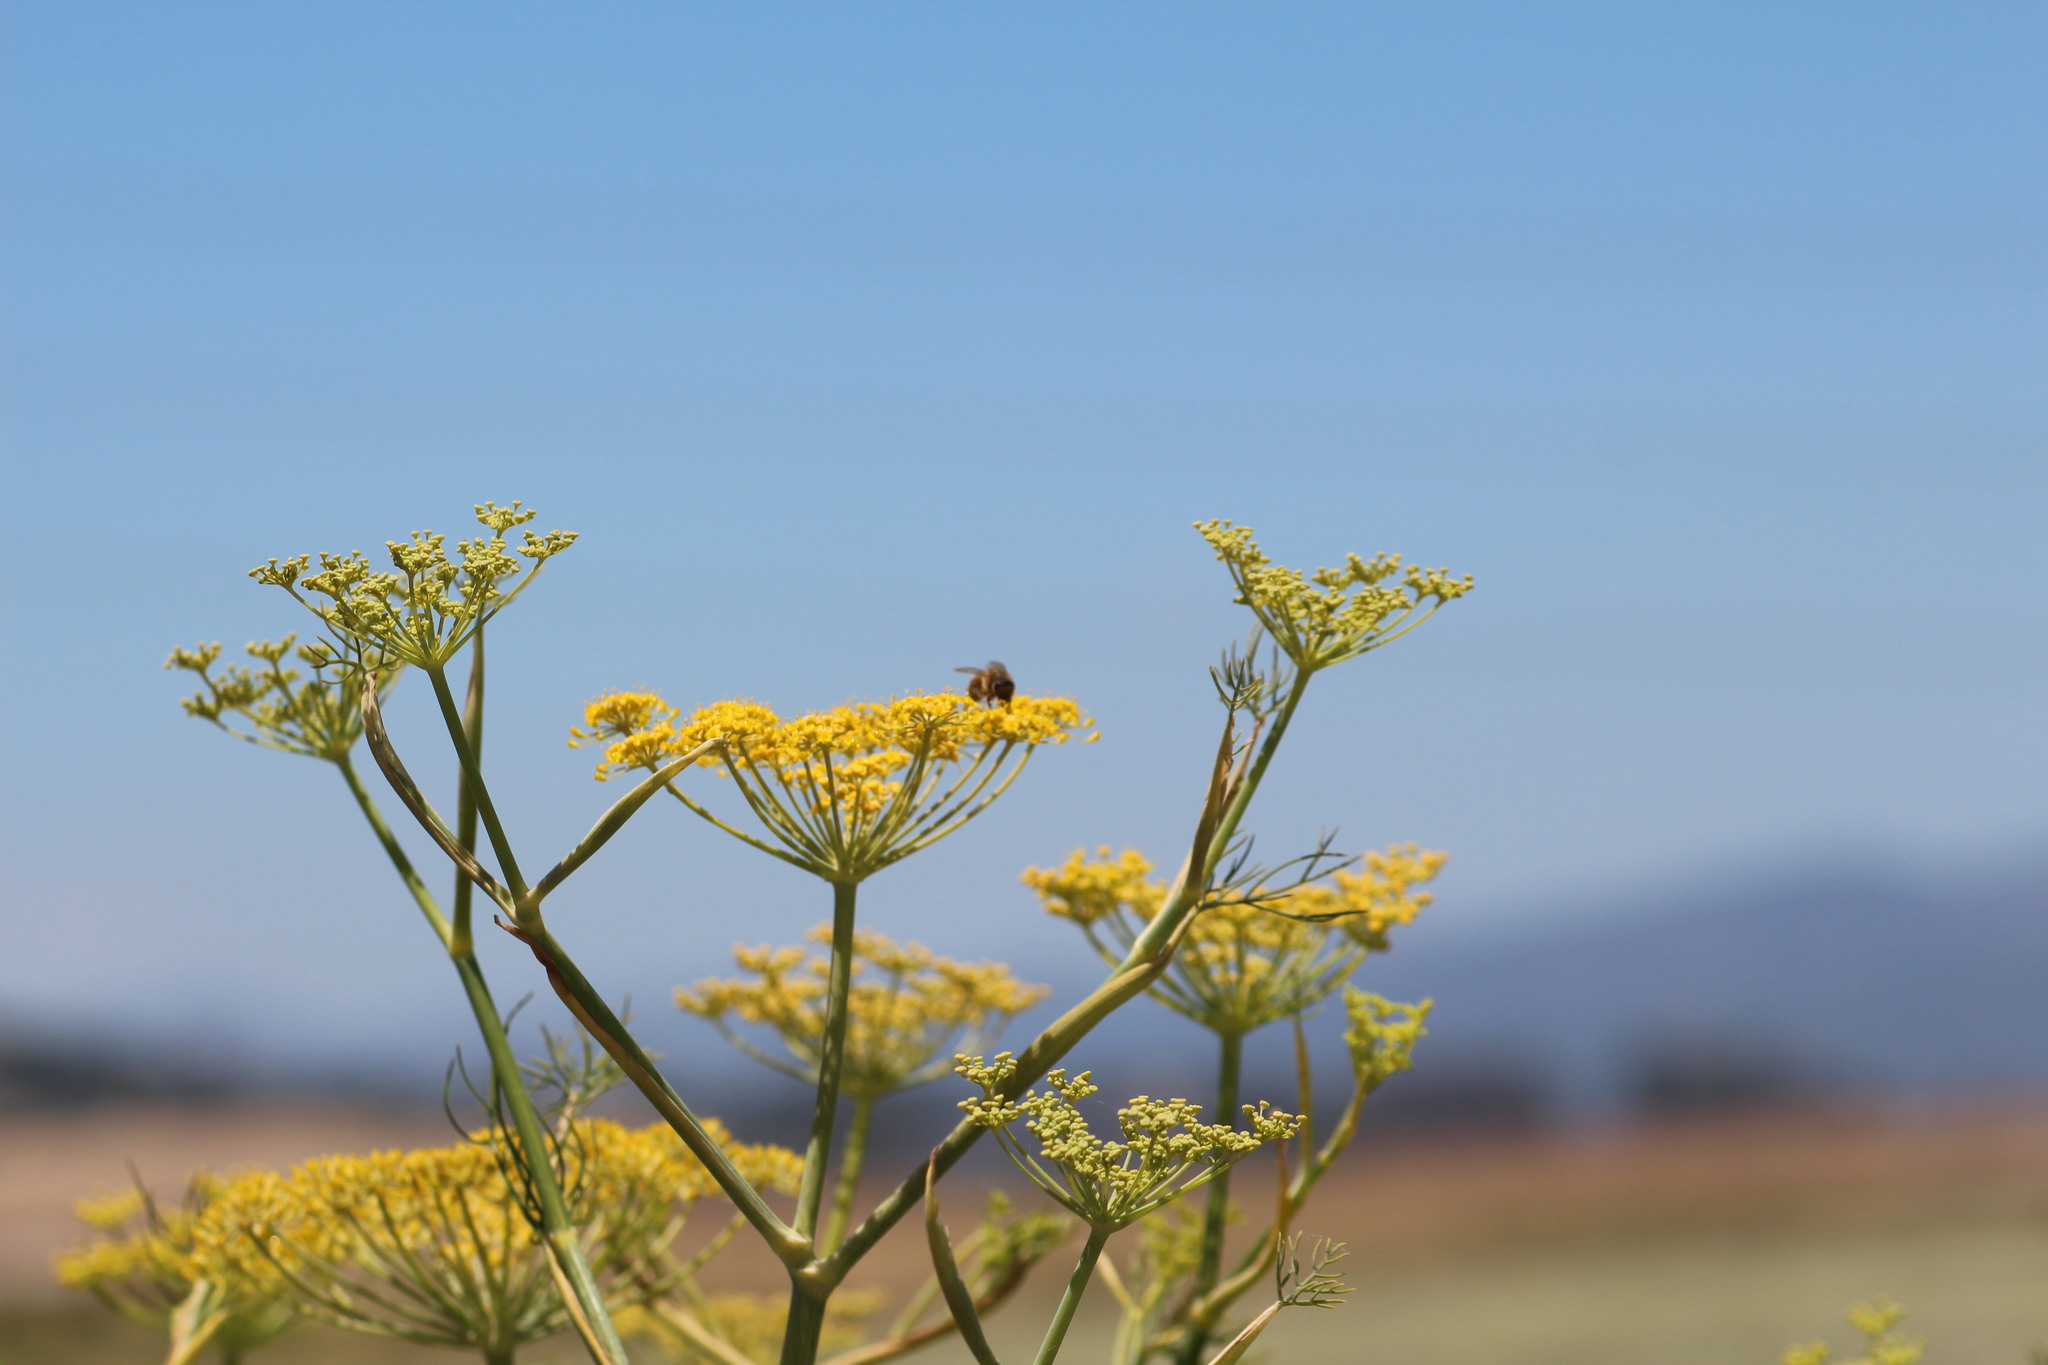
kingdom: Plantae
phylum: Tracheophyta
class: Magnoliopsida
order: Apiales
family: Apiaceae
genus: Foeniculum
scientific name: Foeniculum vulgare
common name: Fennel
